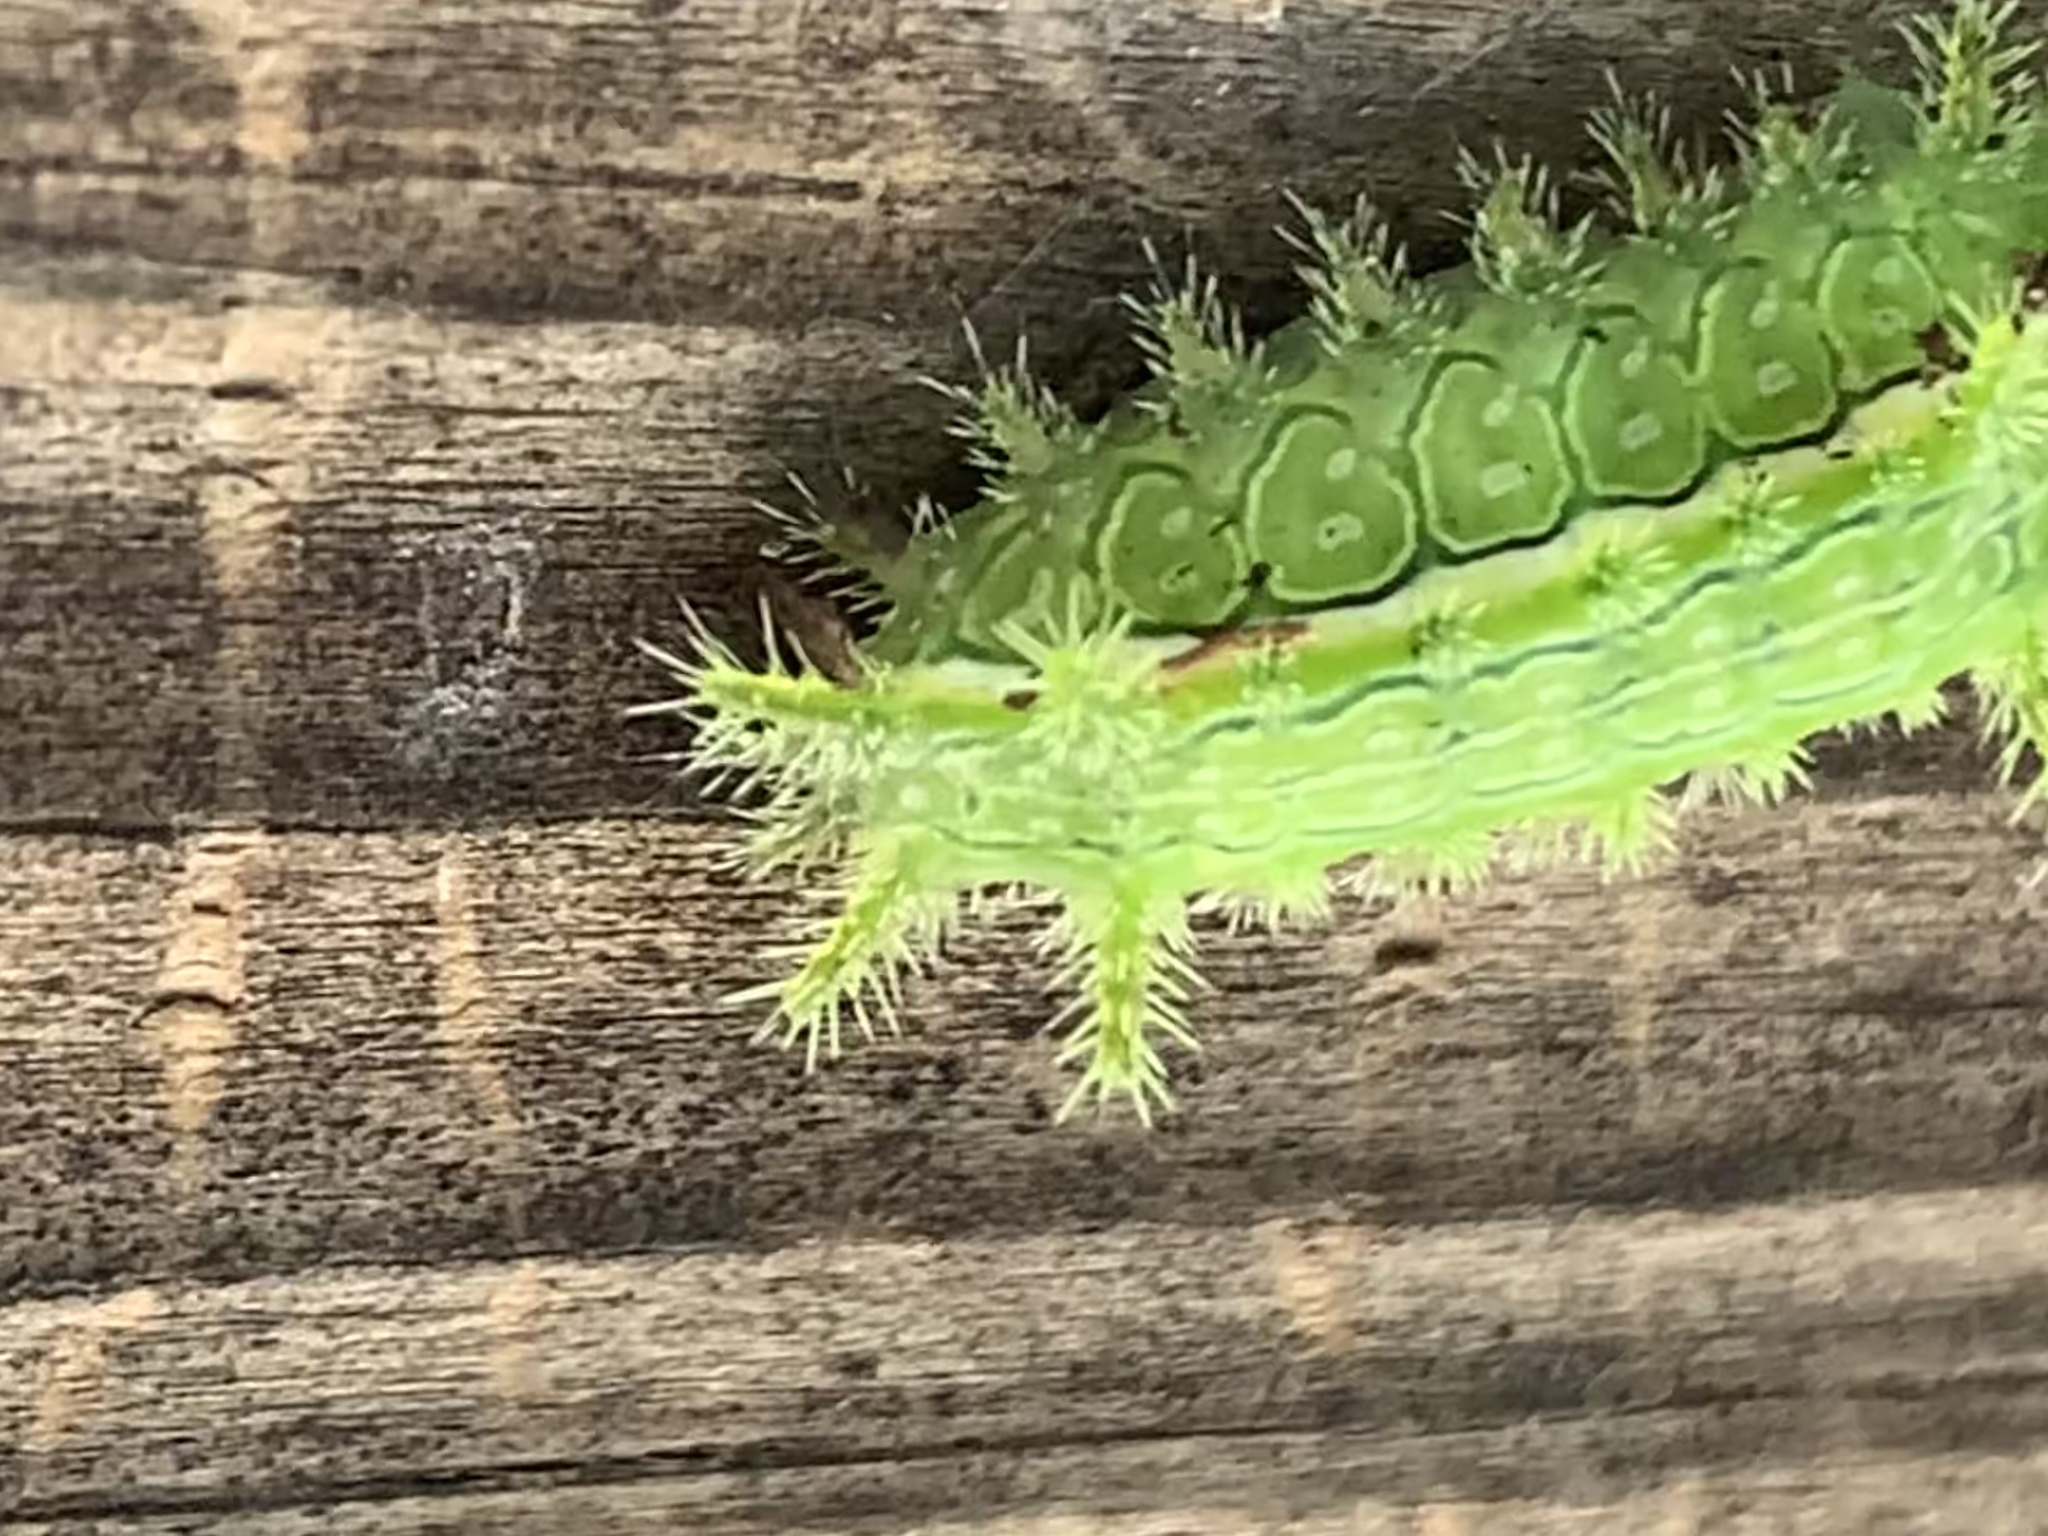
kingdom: Animalia
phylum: Arthropoda
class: Insecta
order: Lepidoptera
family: Limacodidae
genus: Euclea
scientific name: Euclea incisa
